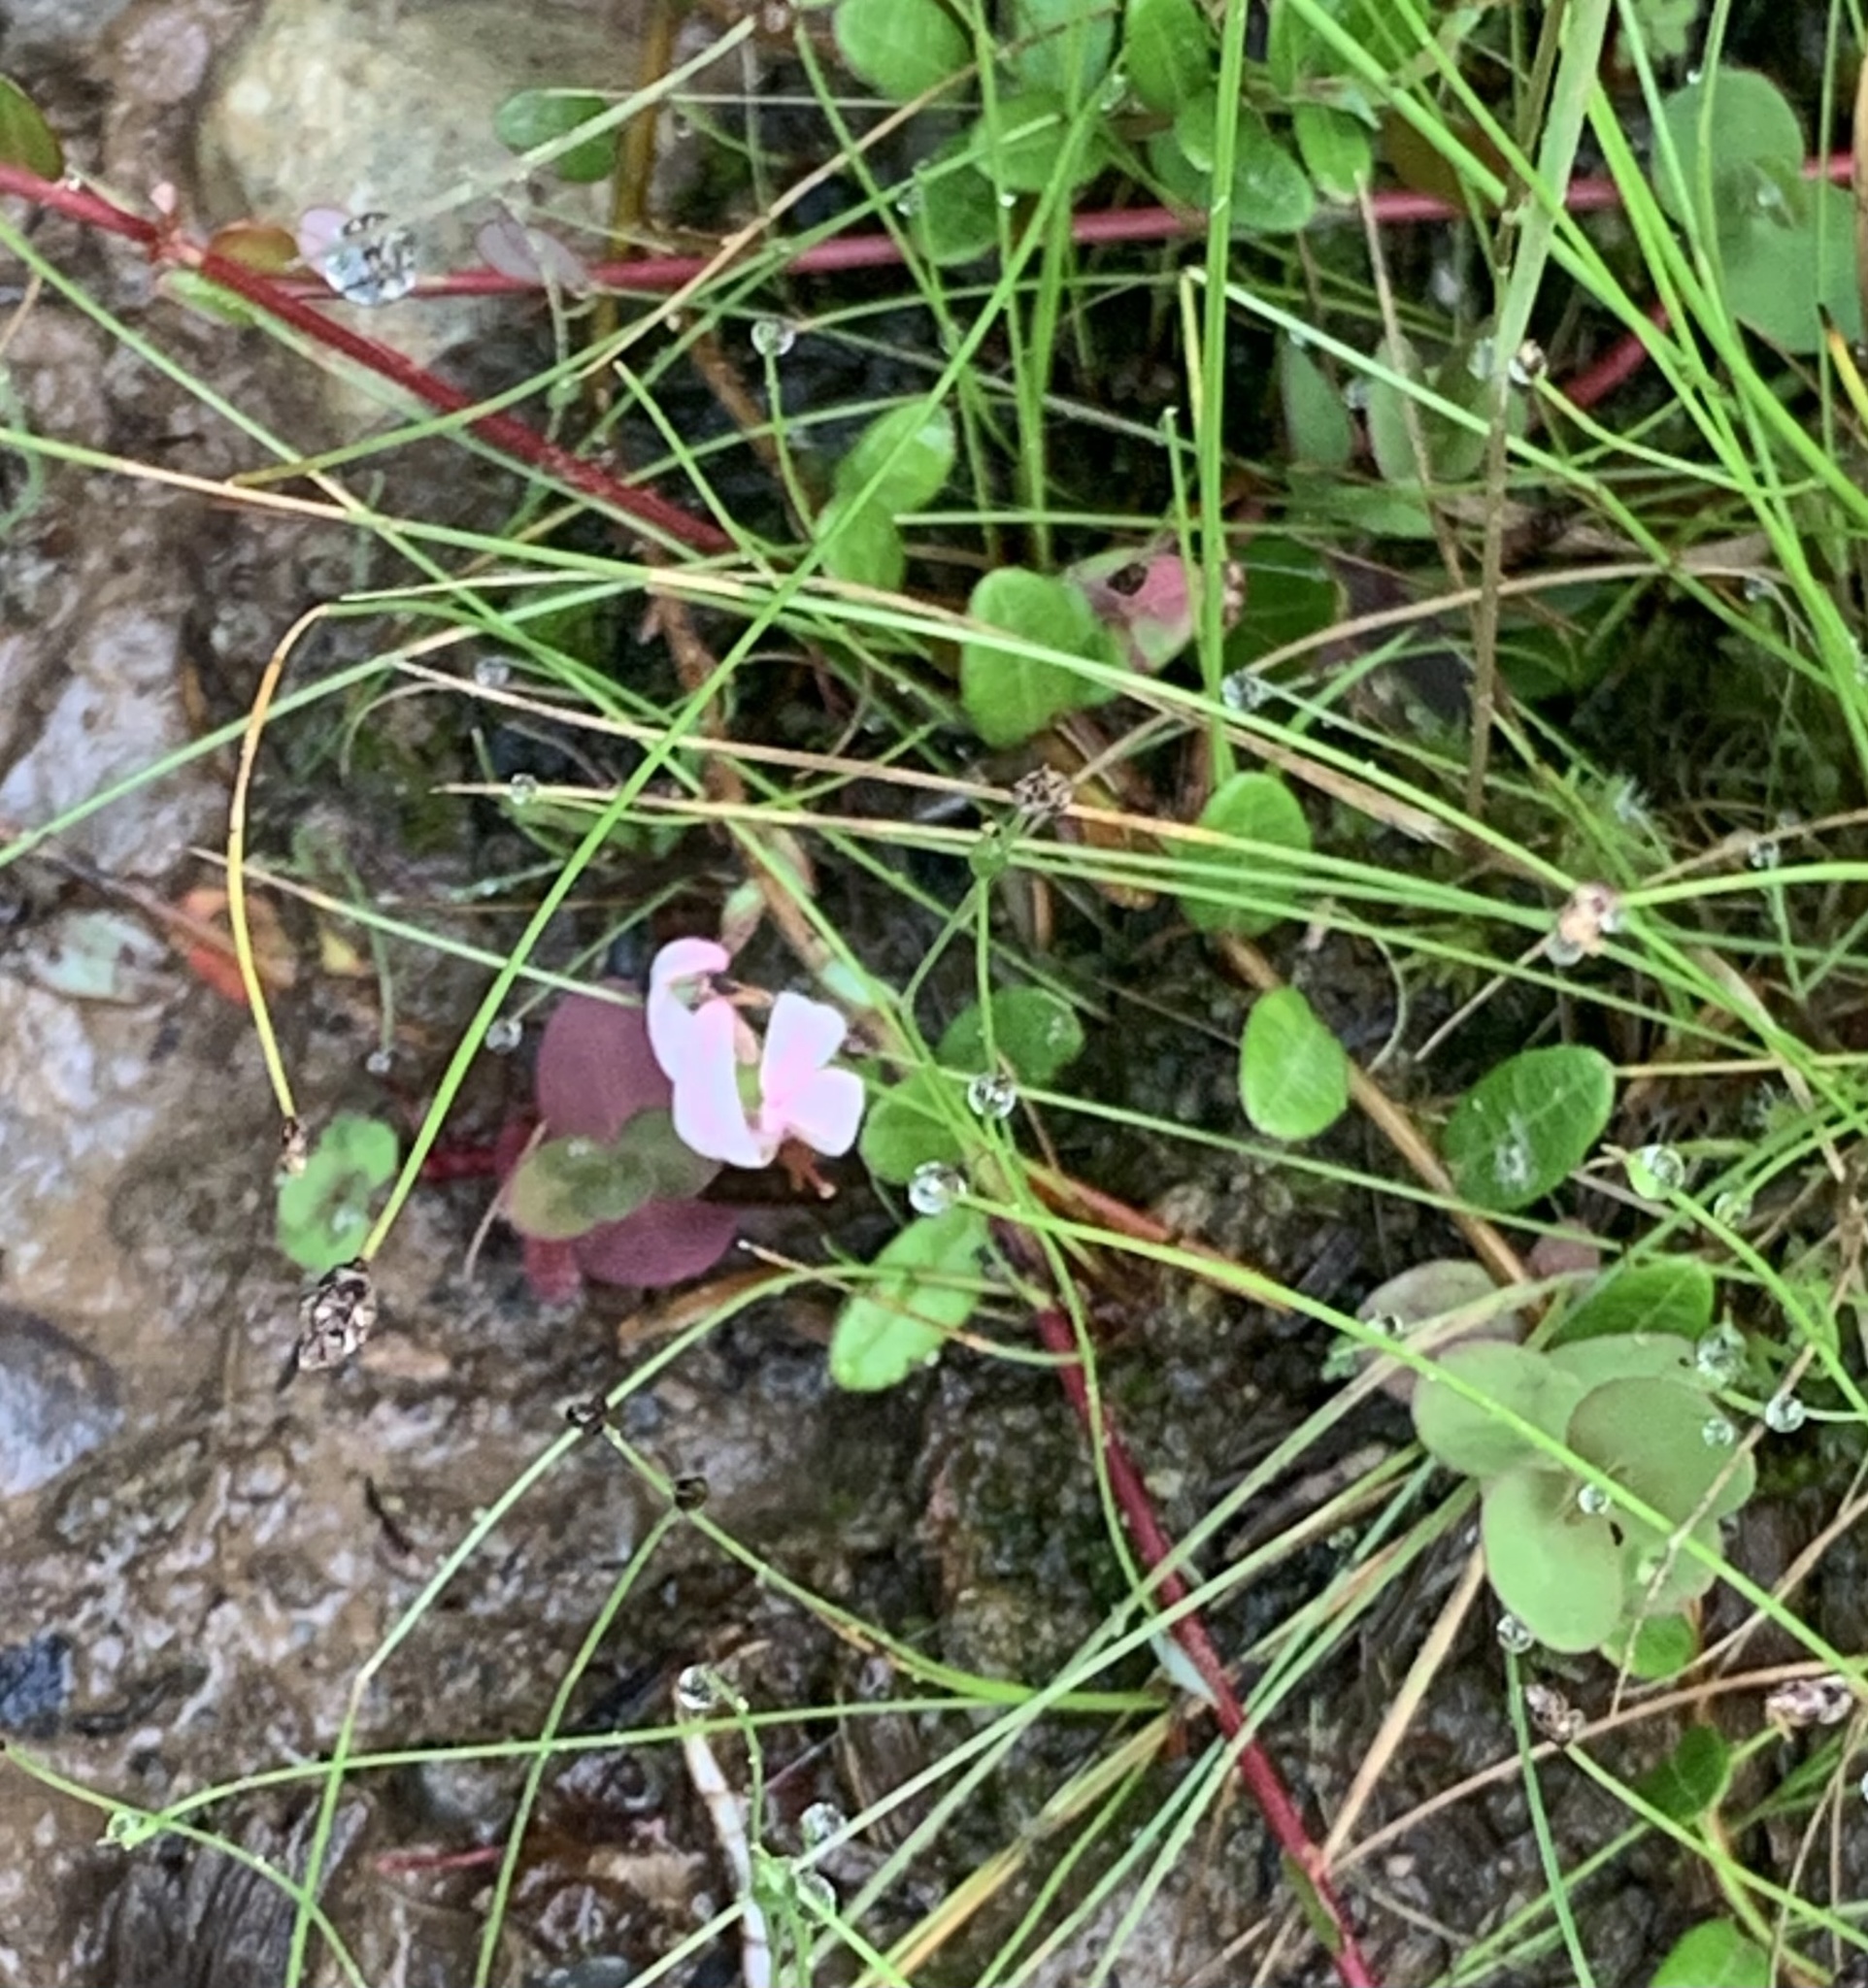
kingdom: Plantae
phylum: Tracheophyta
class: Magnoliopsida
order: Ericales
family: Ericaceae
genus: Vaccinium
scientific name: Vaccinium macrocarpon
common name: American cranberry
